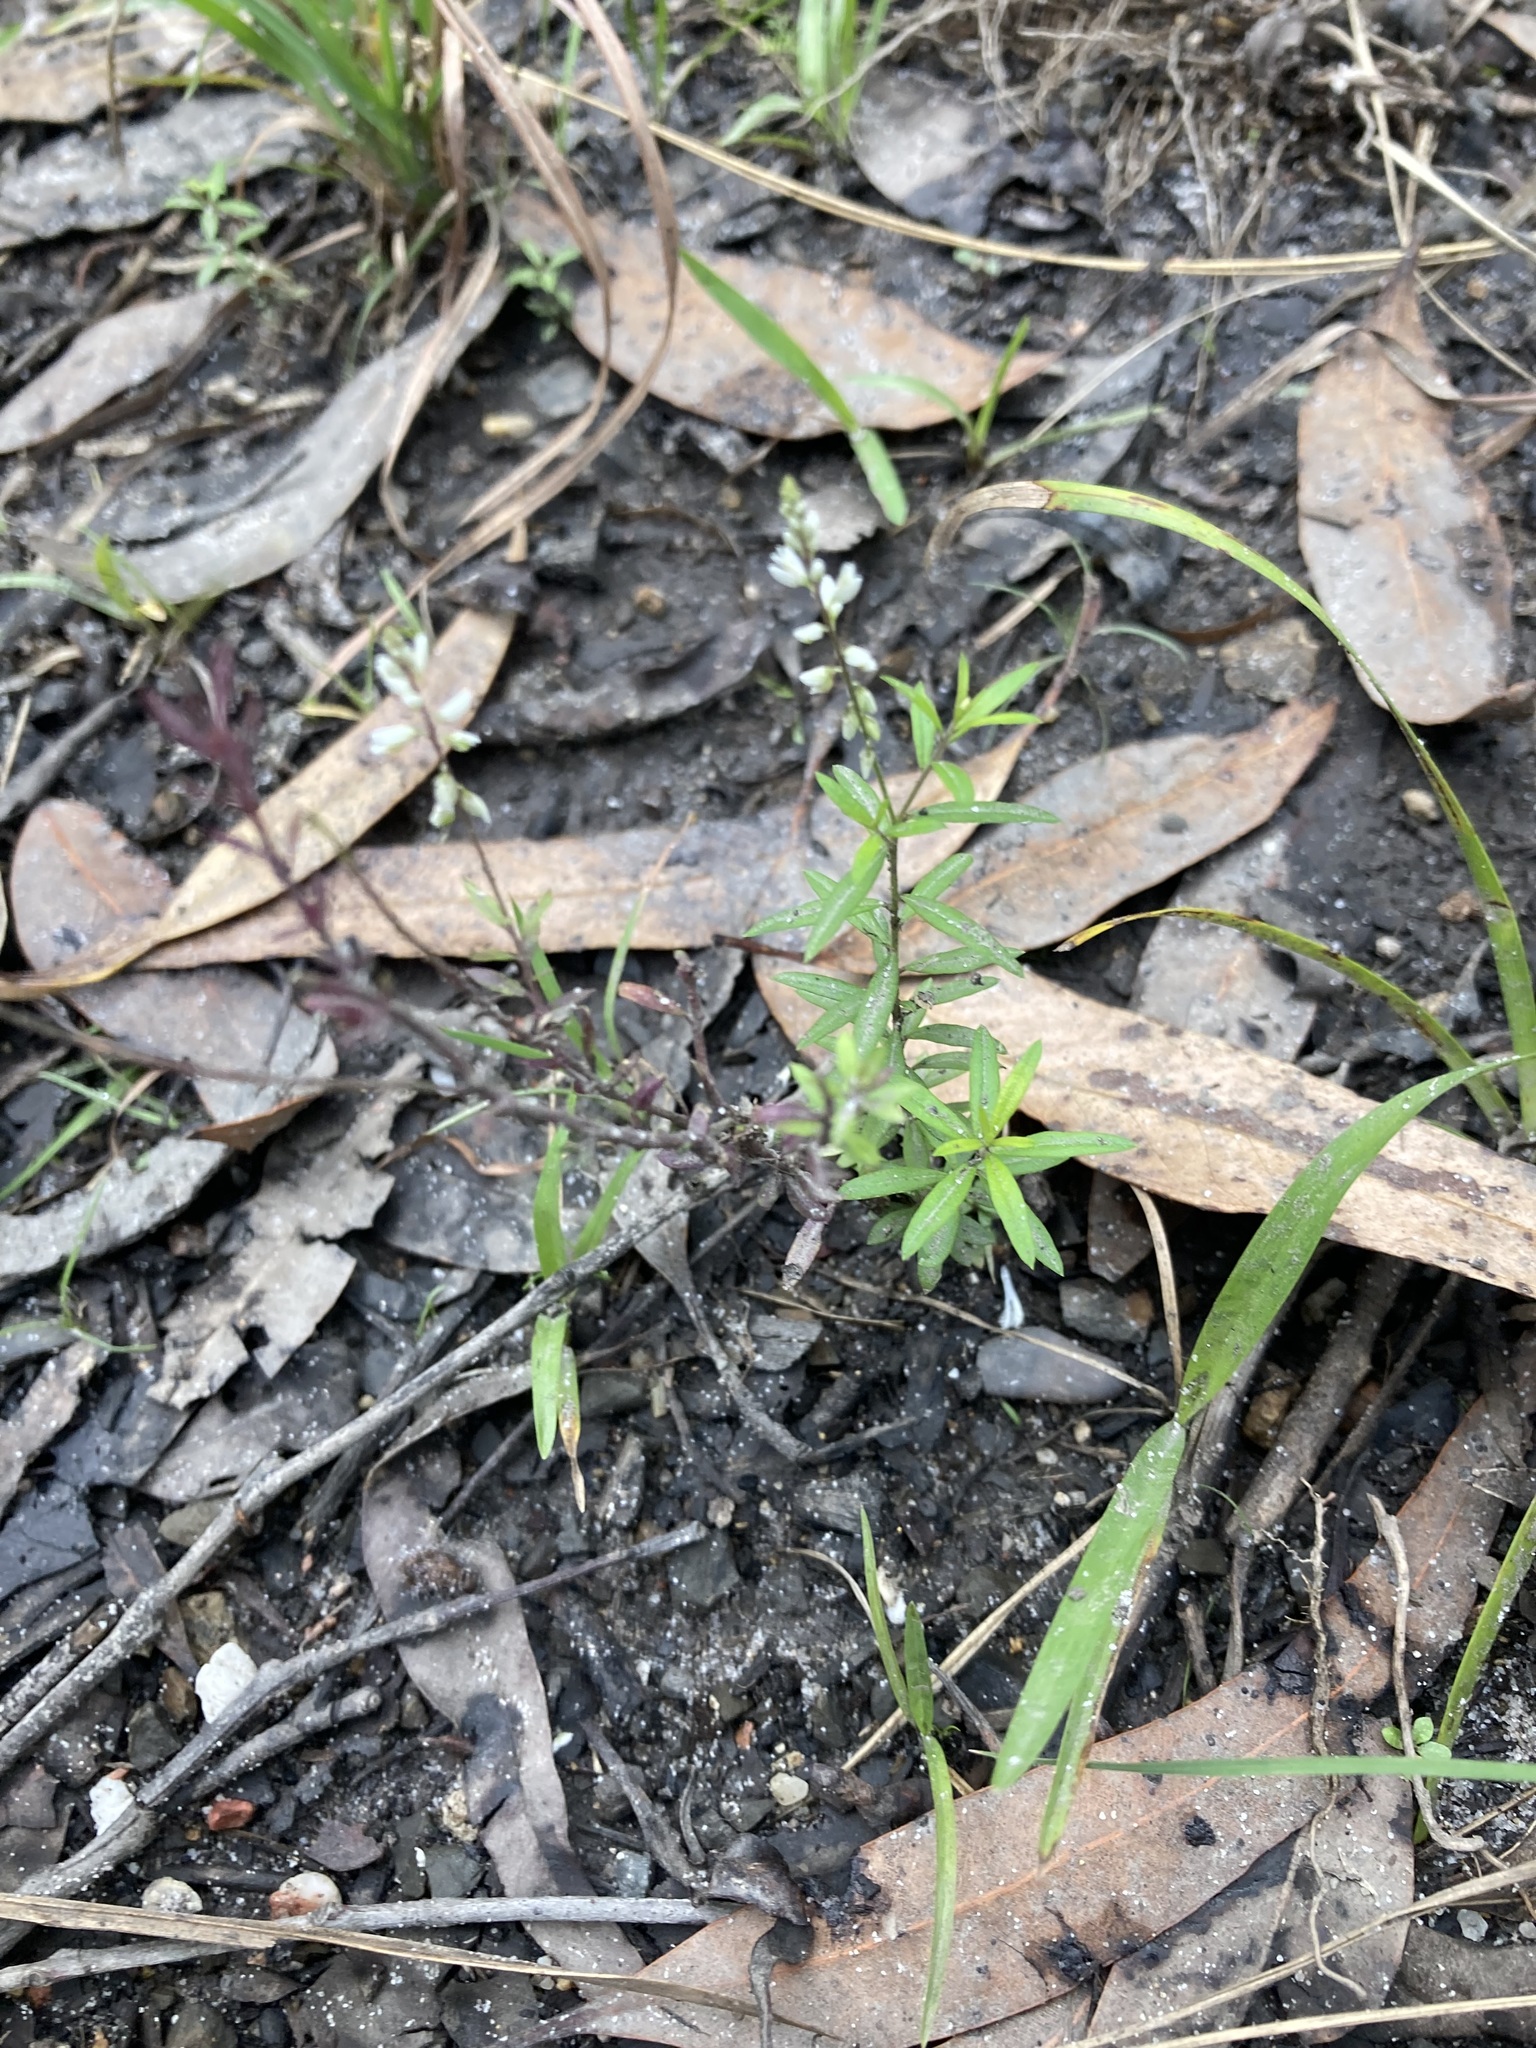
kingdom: Plantae
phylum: Tracheophyta
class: Magnoliopsida
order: Fabales
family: Polygalaceae
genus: Polygala
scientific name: Polygala paniculata
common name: Orosne
